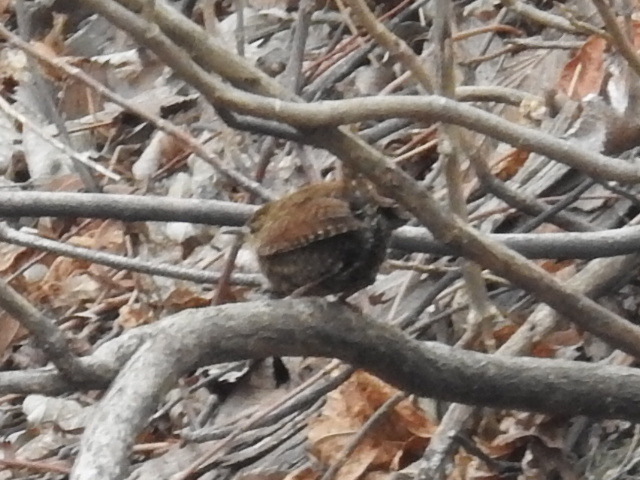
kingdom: Animalia
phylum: Chordata
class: Aves
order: Passeriformes
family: Troglodytidae
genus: Troglodytes
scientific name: Troglodytes hiemalis
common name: Winter wren
